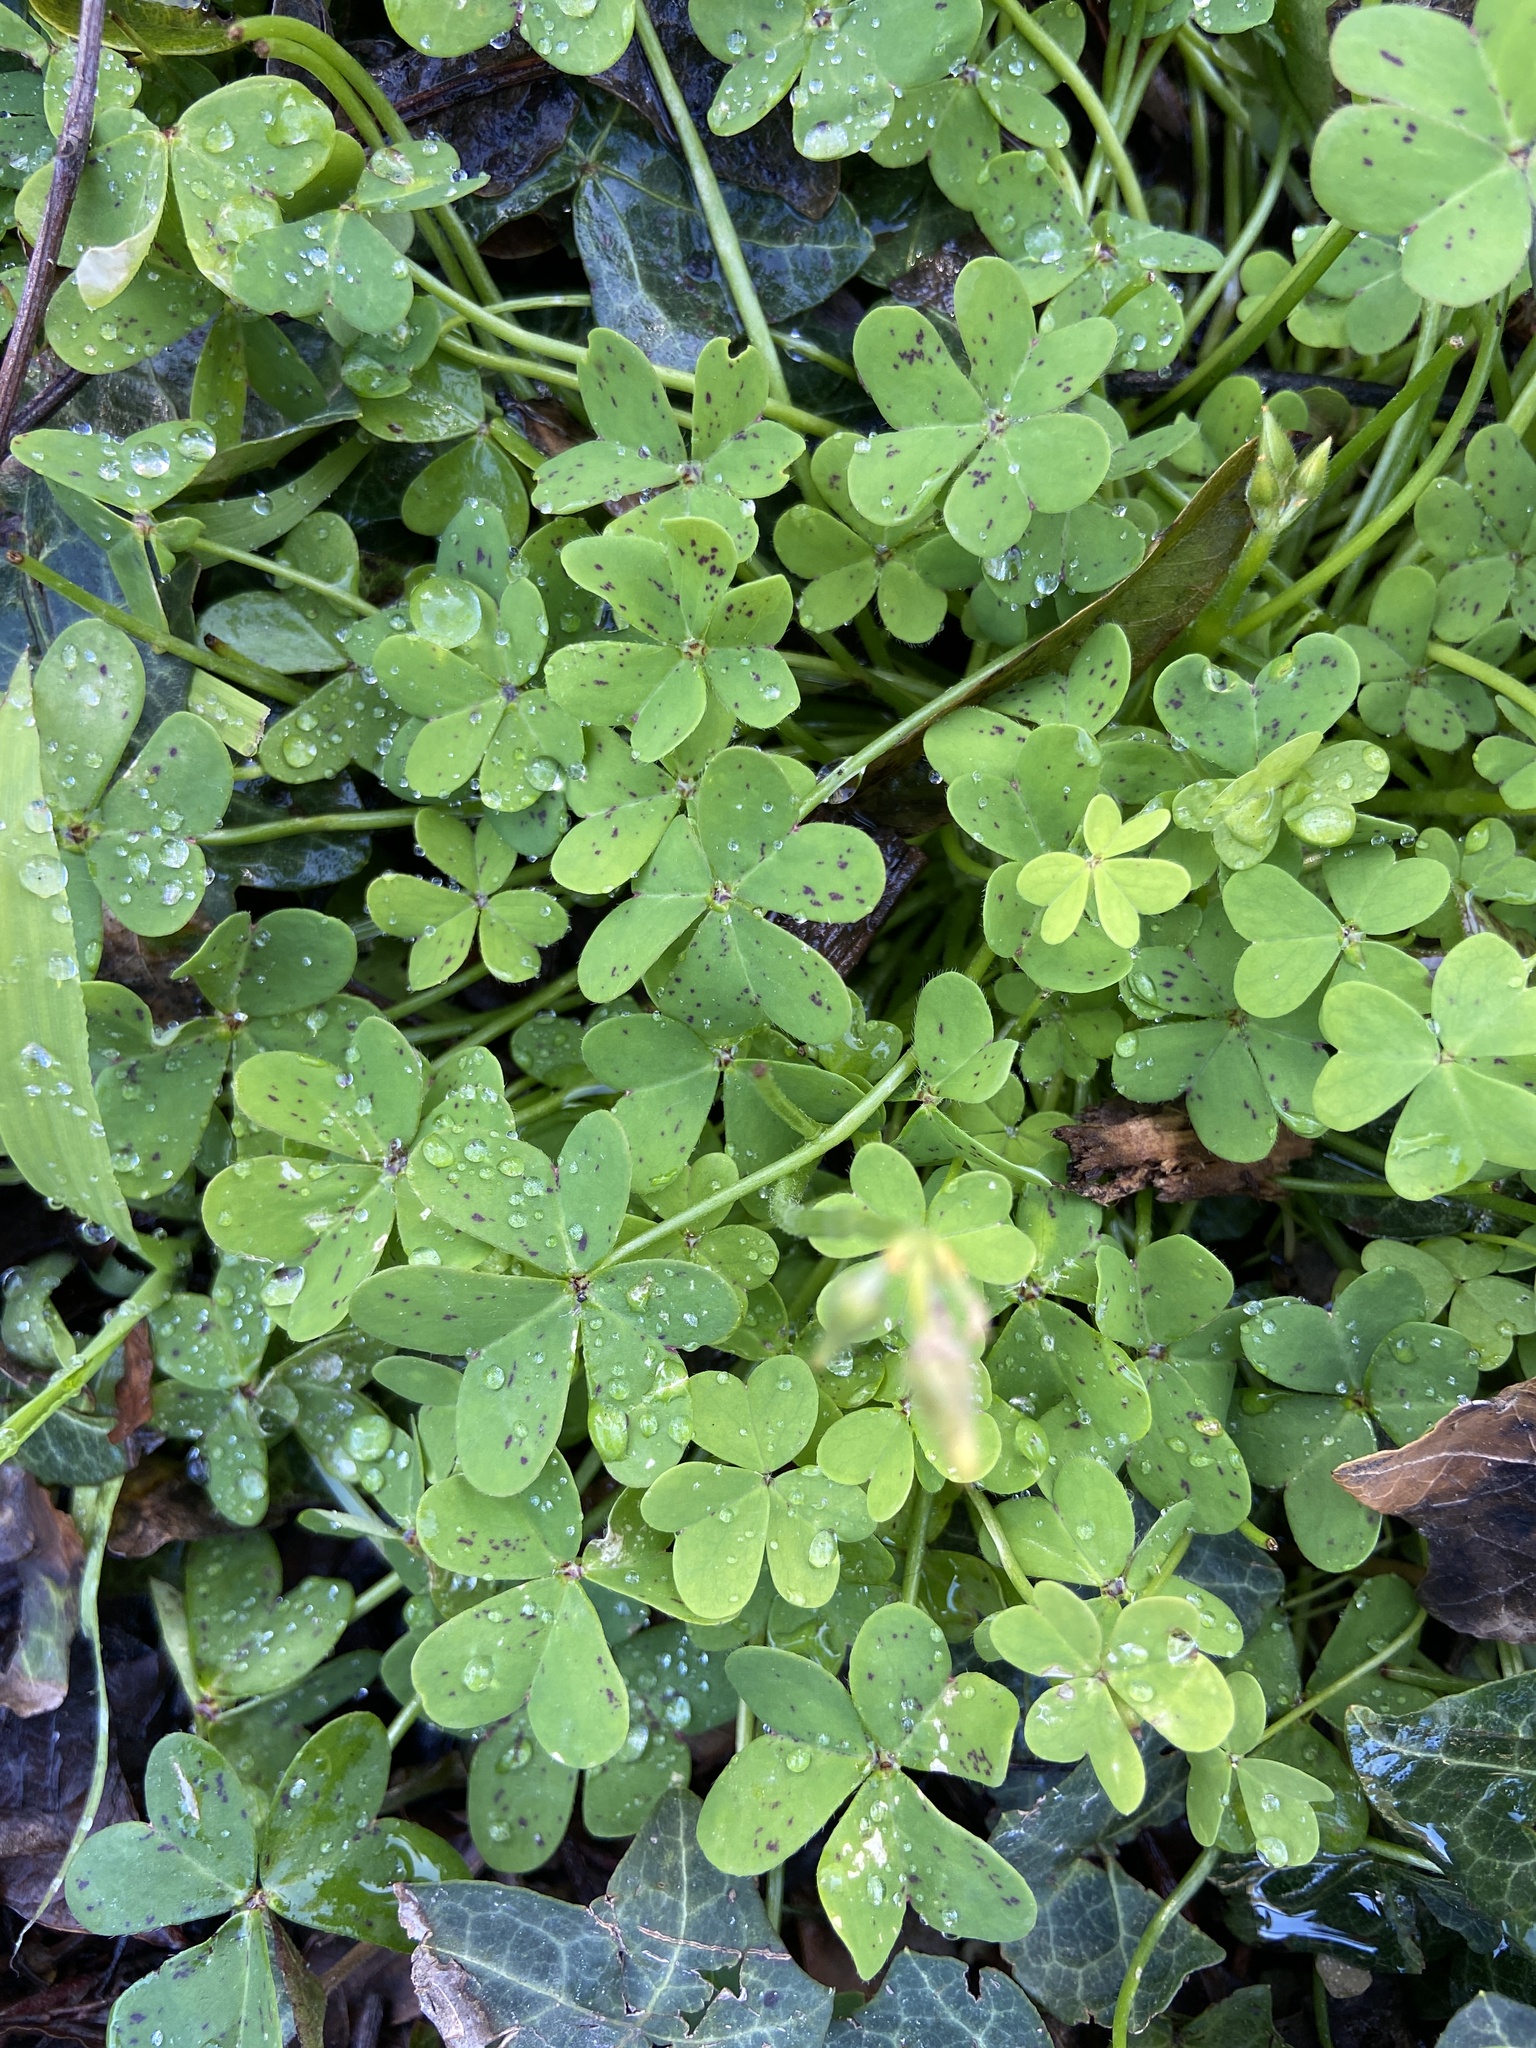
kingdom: Plantae
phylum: Tracheophyta
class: Magnoliopsida
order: Oxalidales
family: Oxalidaceae
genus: Oxalis
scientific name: Oxalis pes-caprae
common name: Bermuda-buttercup
